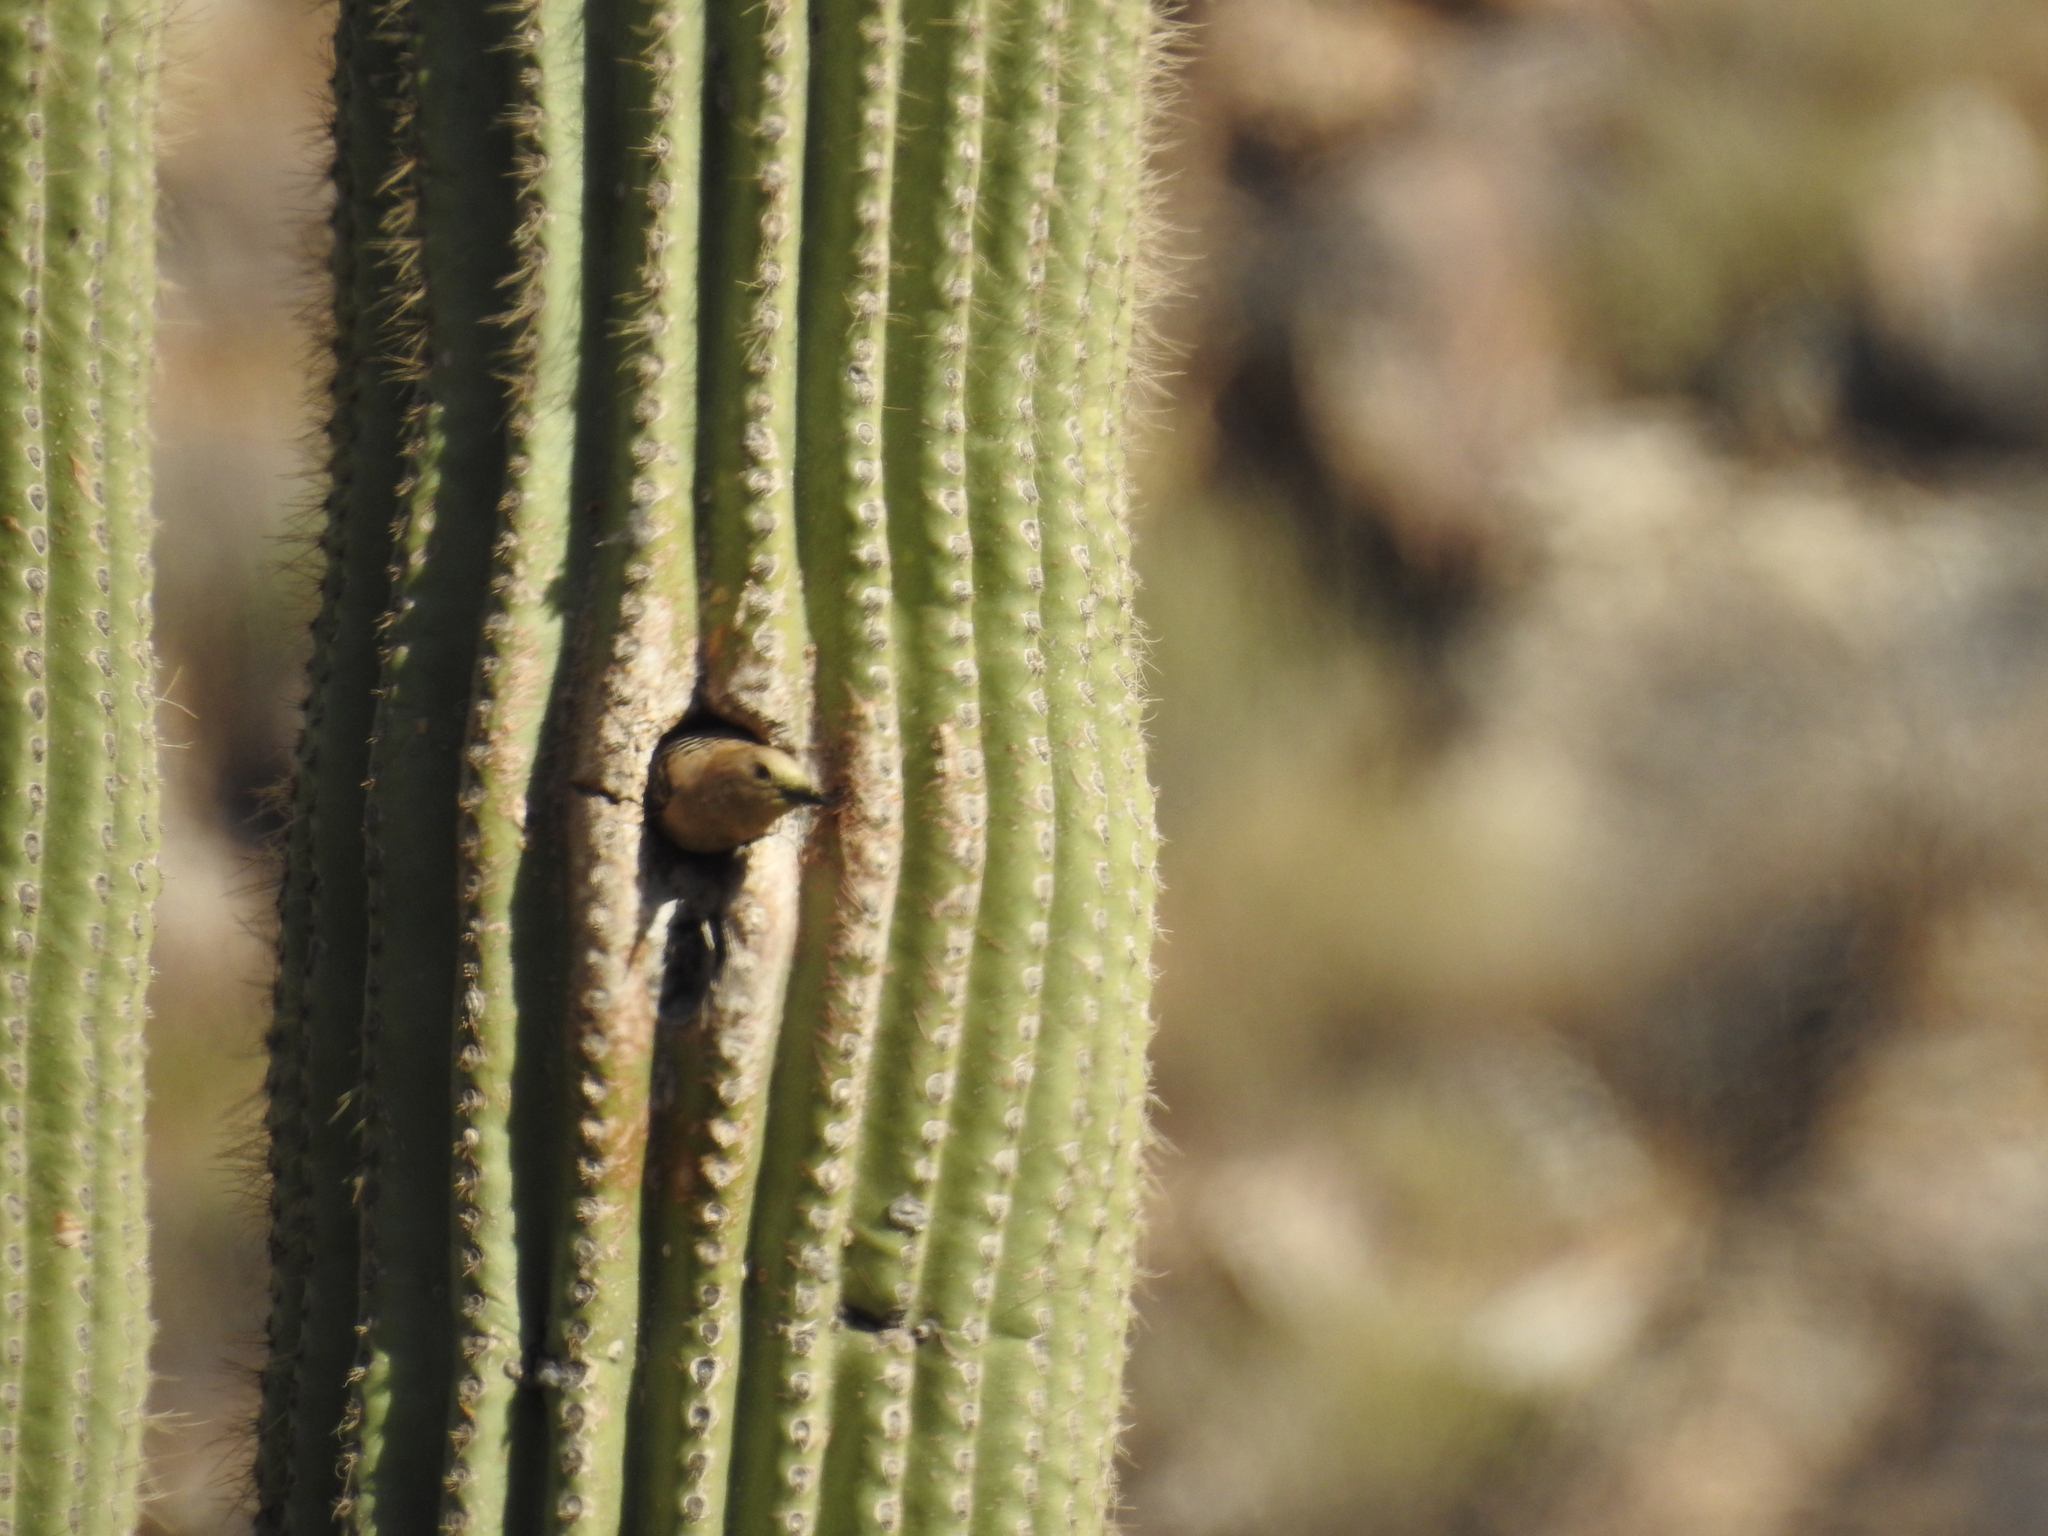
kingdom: Animalia
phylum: Chordata
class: Aves
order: Piciformes
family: Picidae
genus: Melanerpes
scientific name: Melanerpes uropygialis
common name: Gila woodpecker
